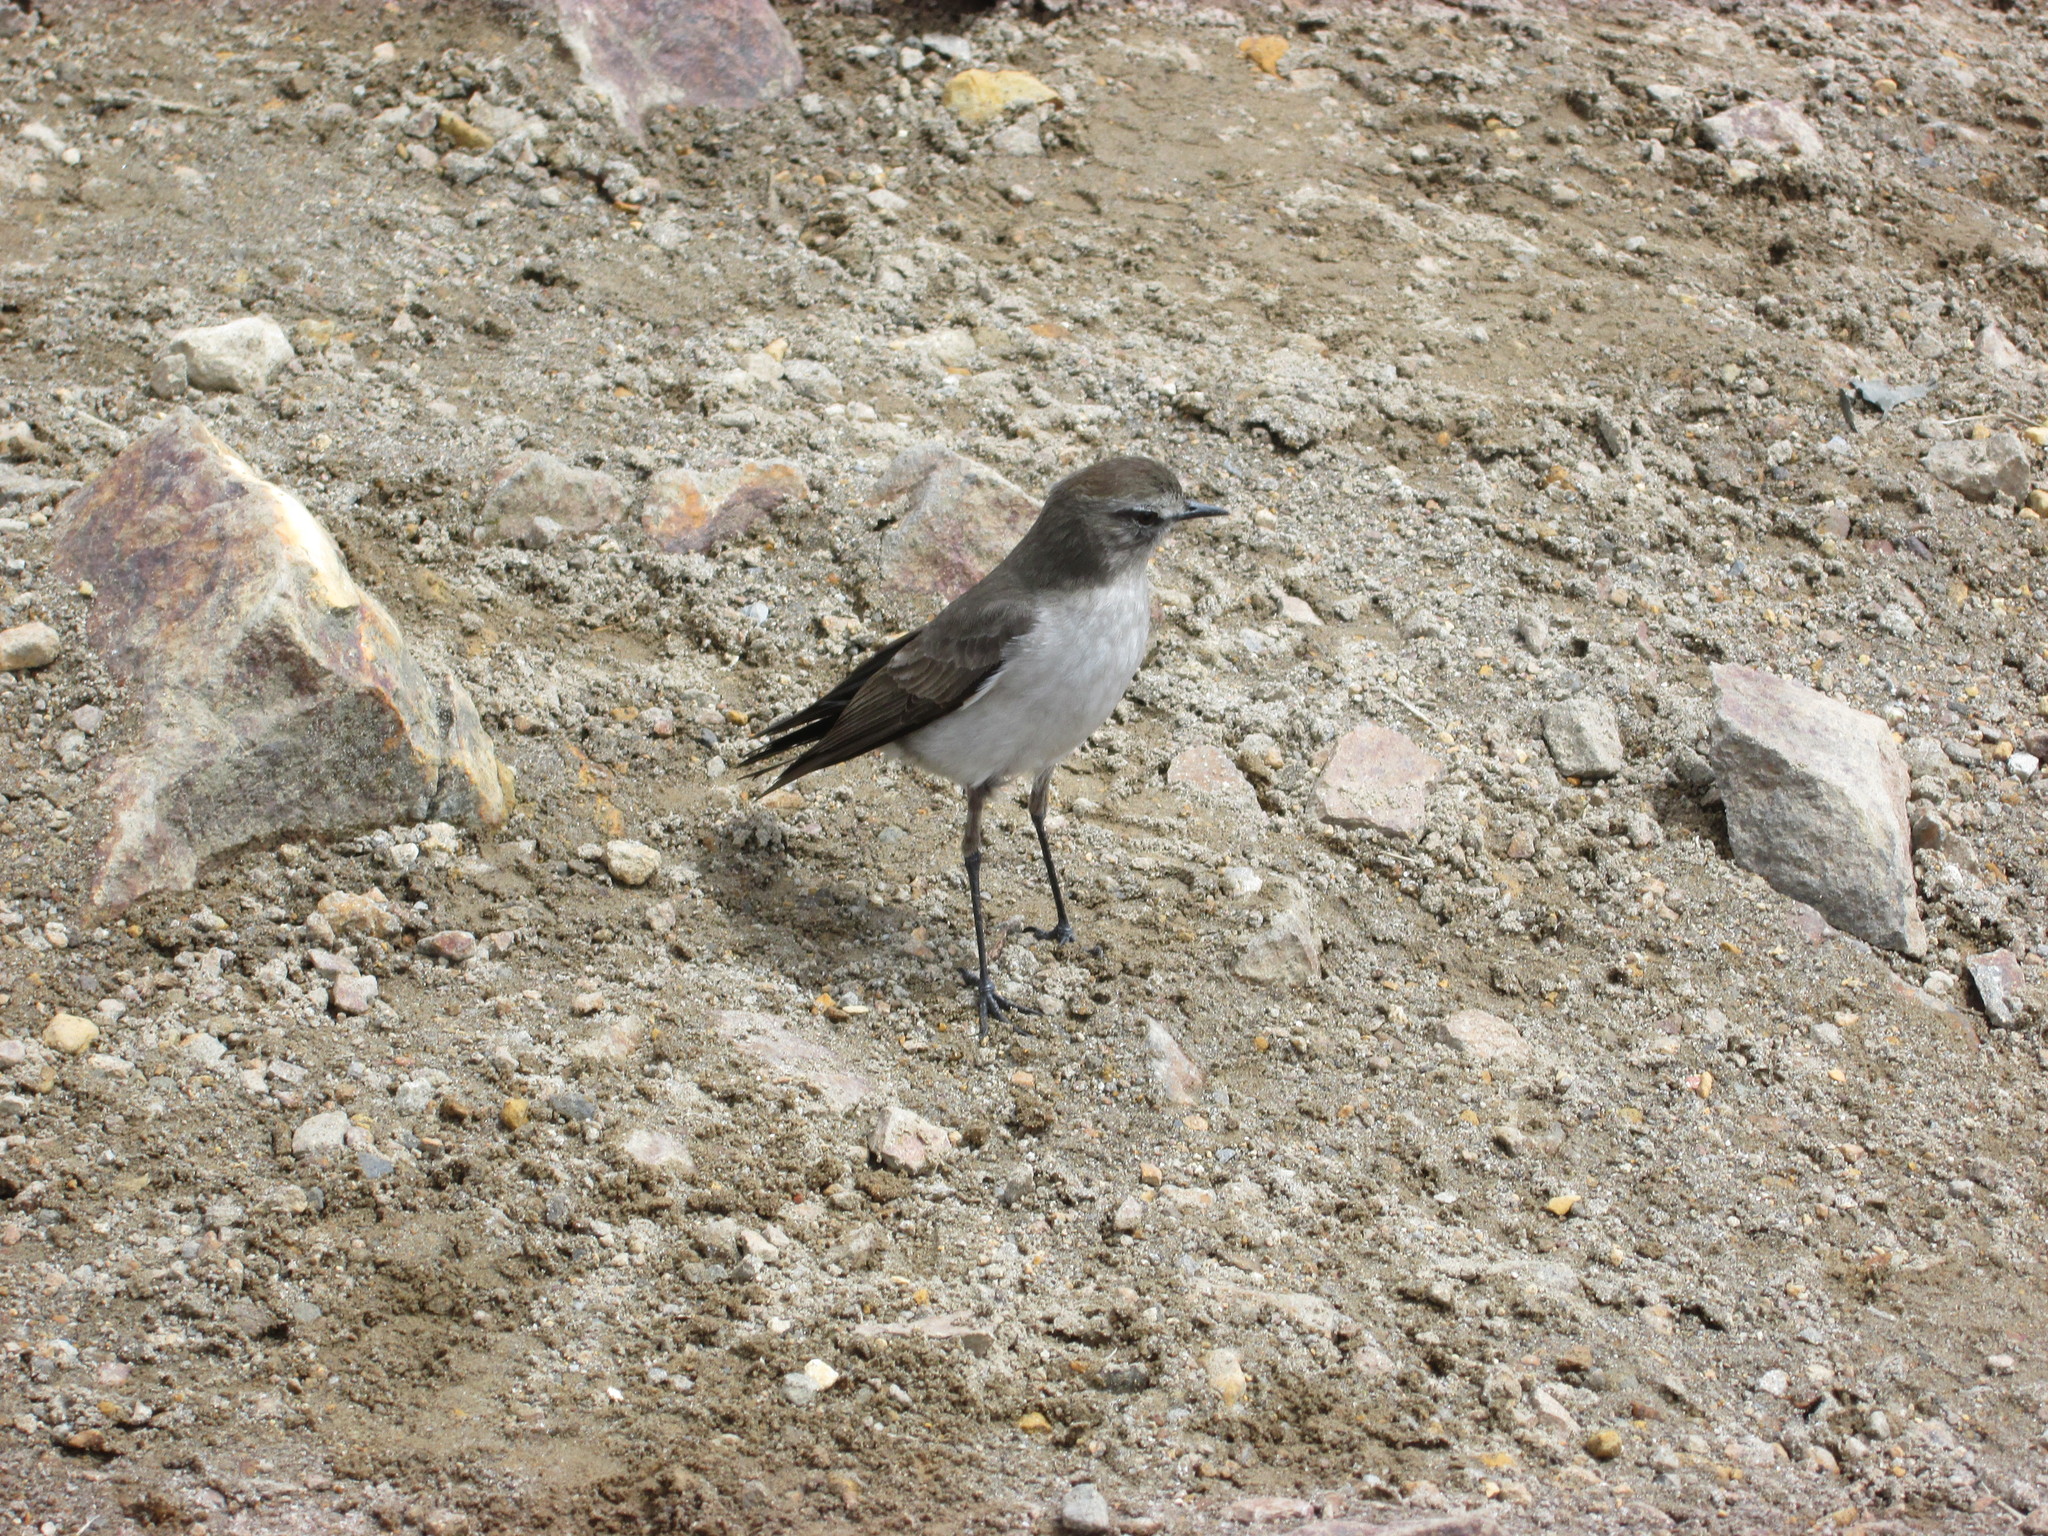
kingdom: Animalia
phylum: Chordata
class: Aves
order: Passeriformes
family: Tyrannidae
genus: Muscisaxicola
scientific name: Muscisaxicola alpinus
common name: Paramo ground tyrant
